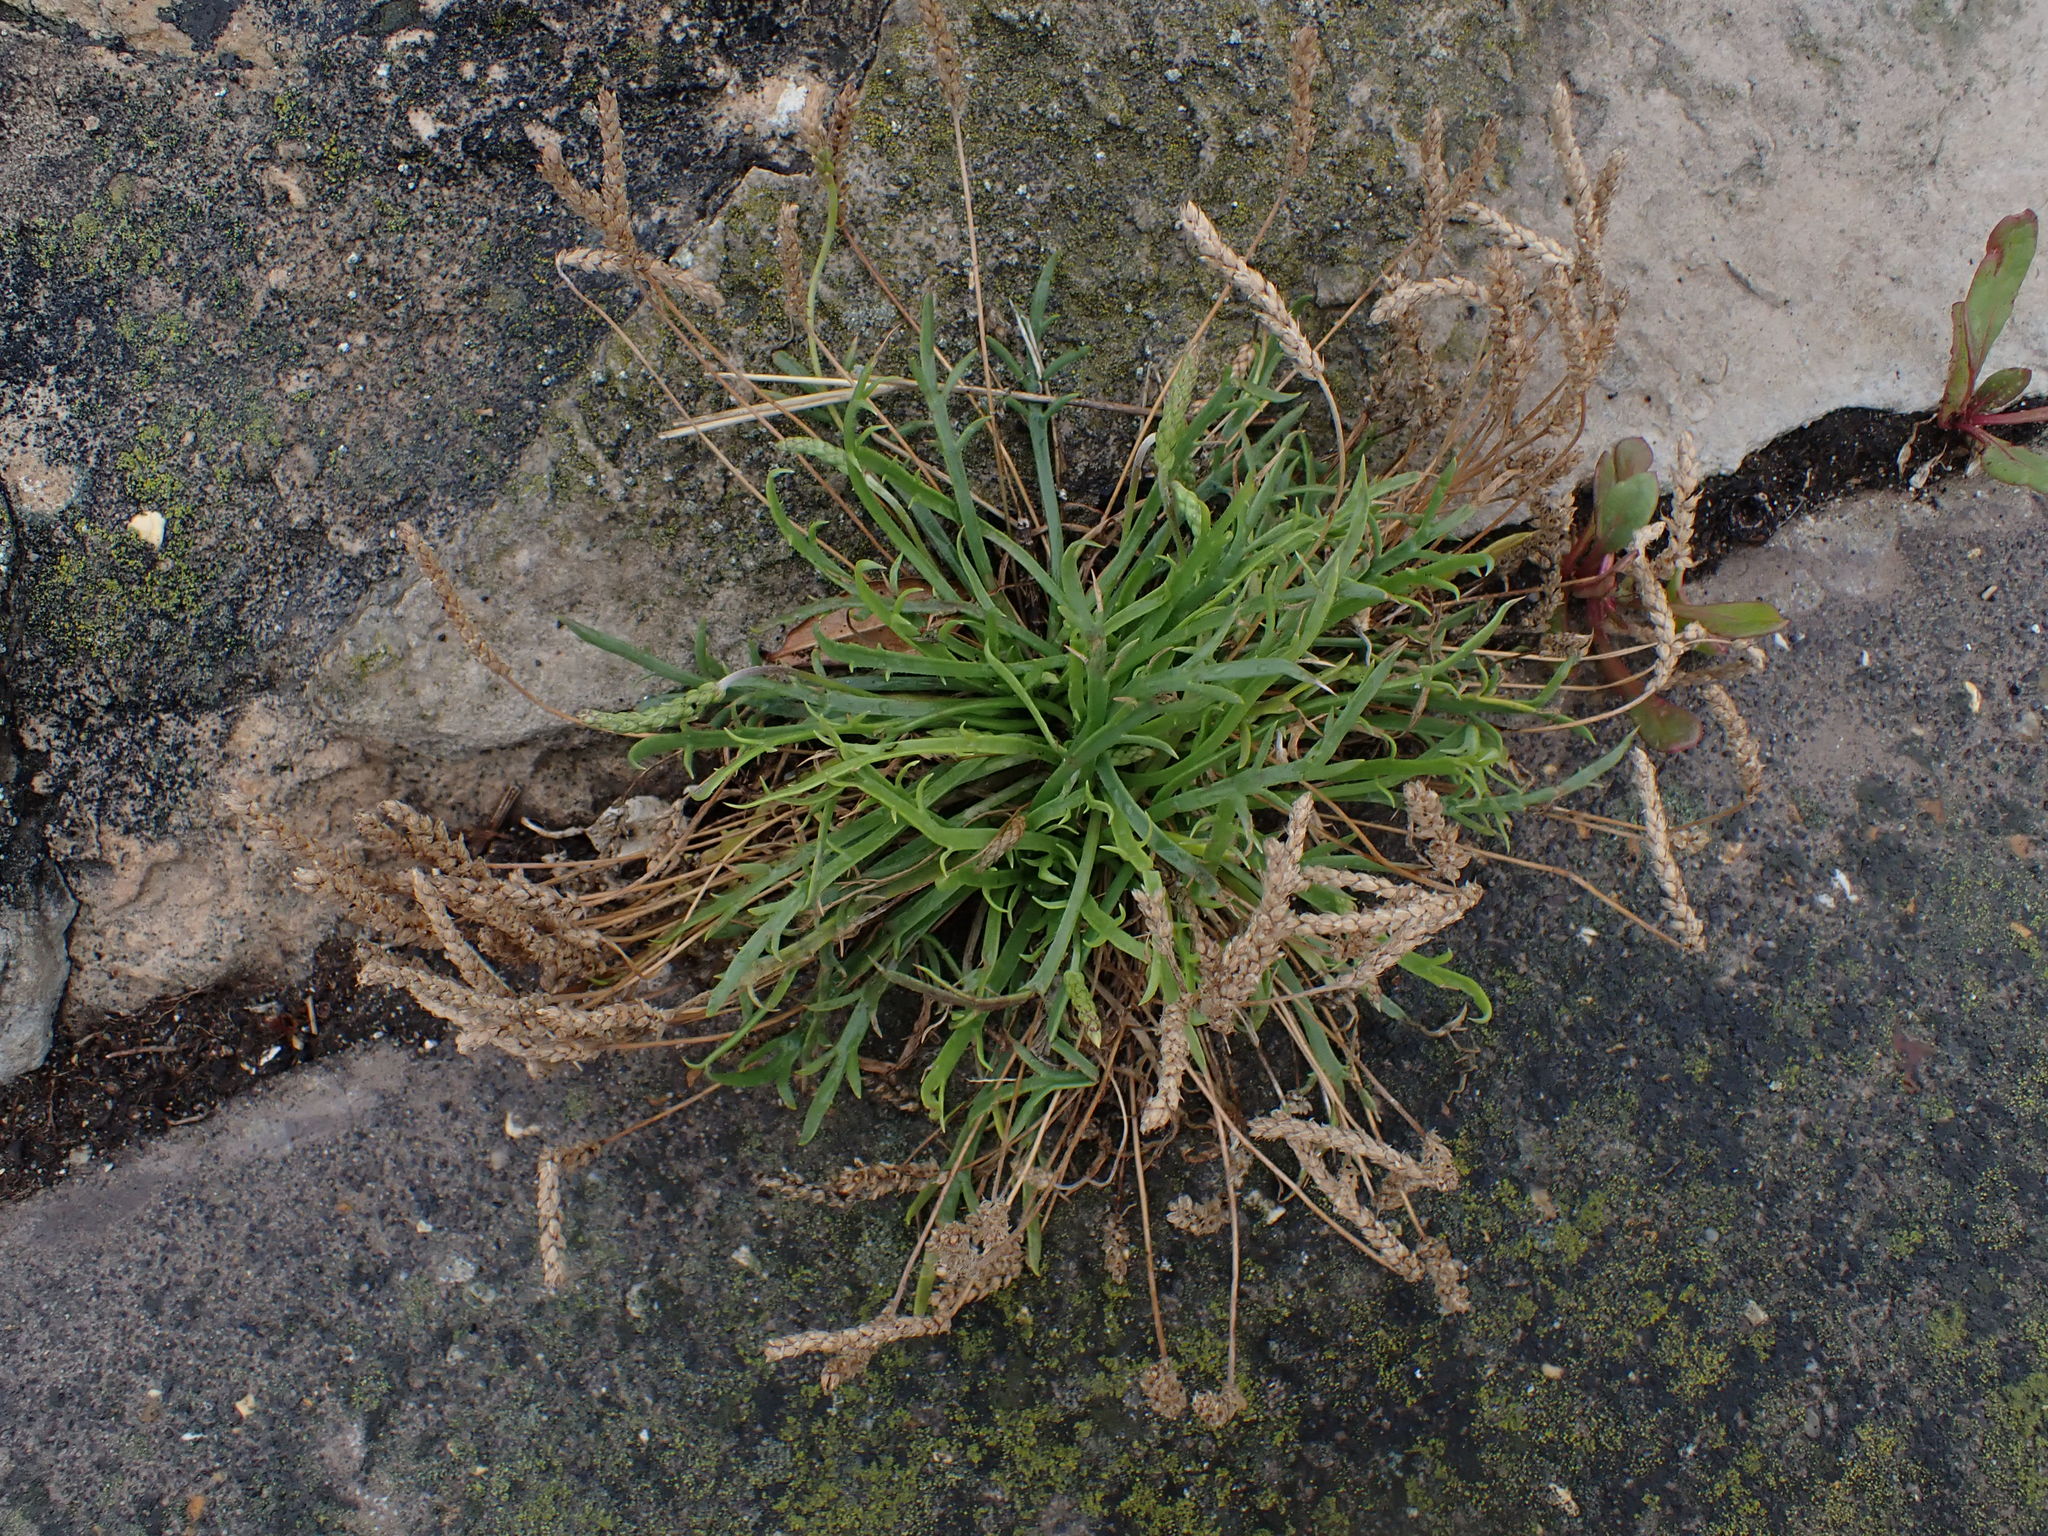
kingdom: Plantae
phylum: Tracheophyta
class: Magnoliopsida
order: Lamiales
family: Plantaginaceae
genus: Plantago
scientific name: Plantago coronopus
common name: Buck's-horn plantain
